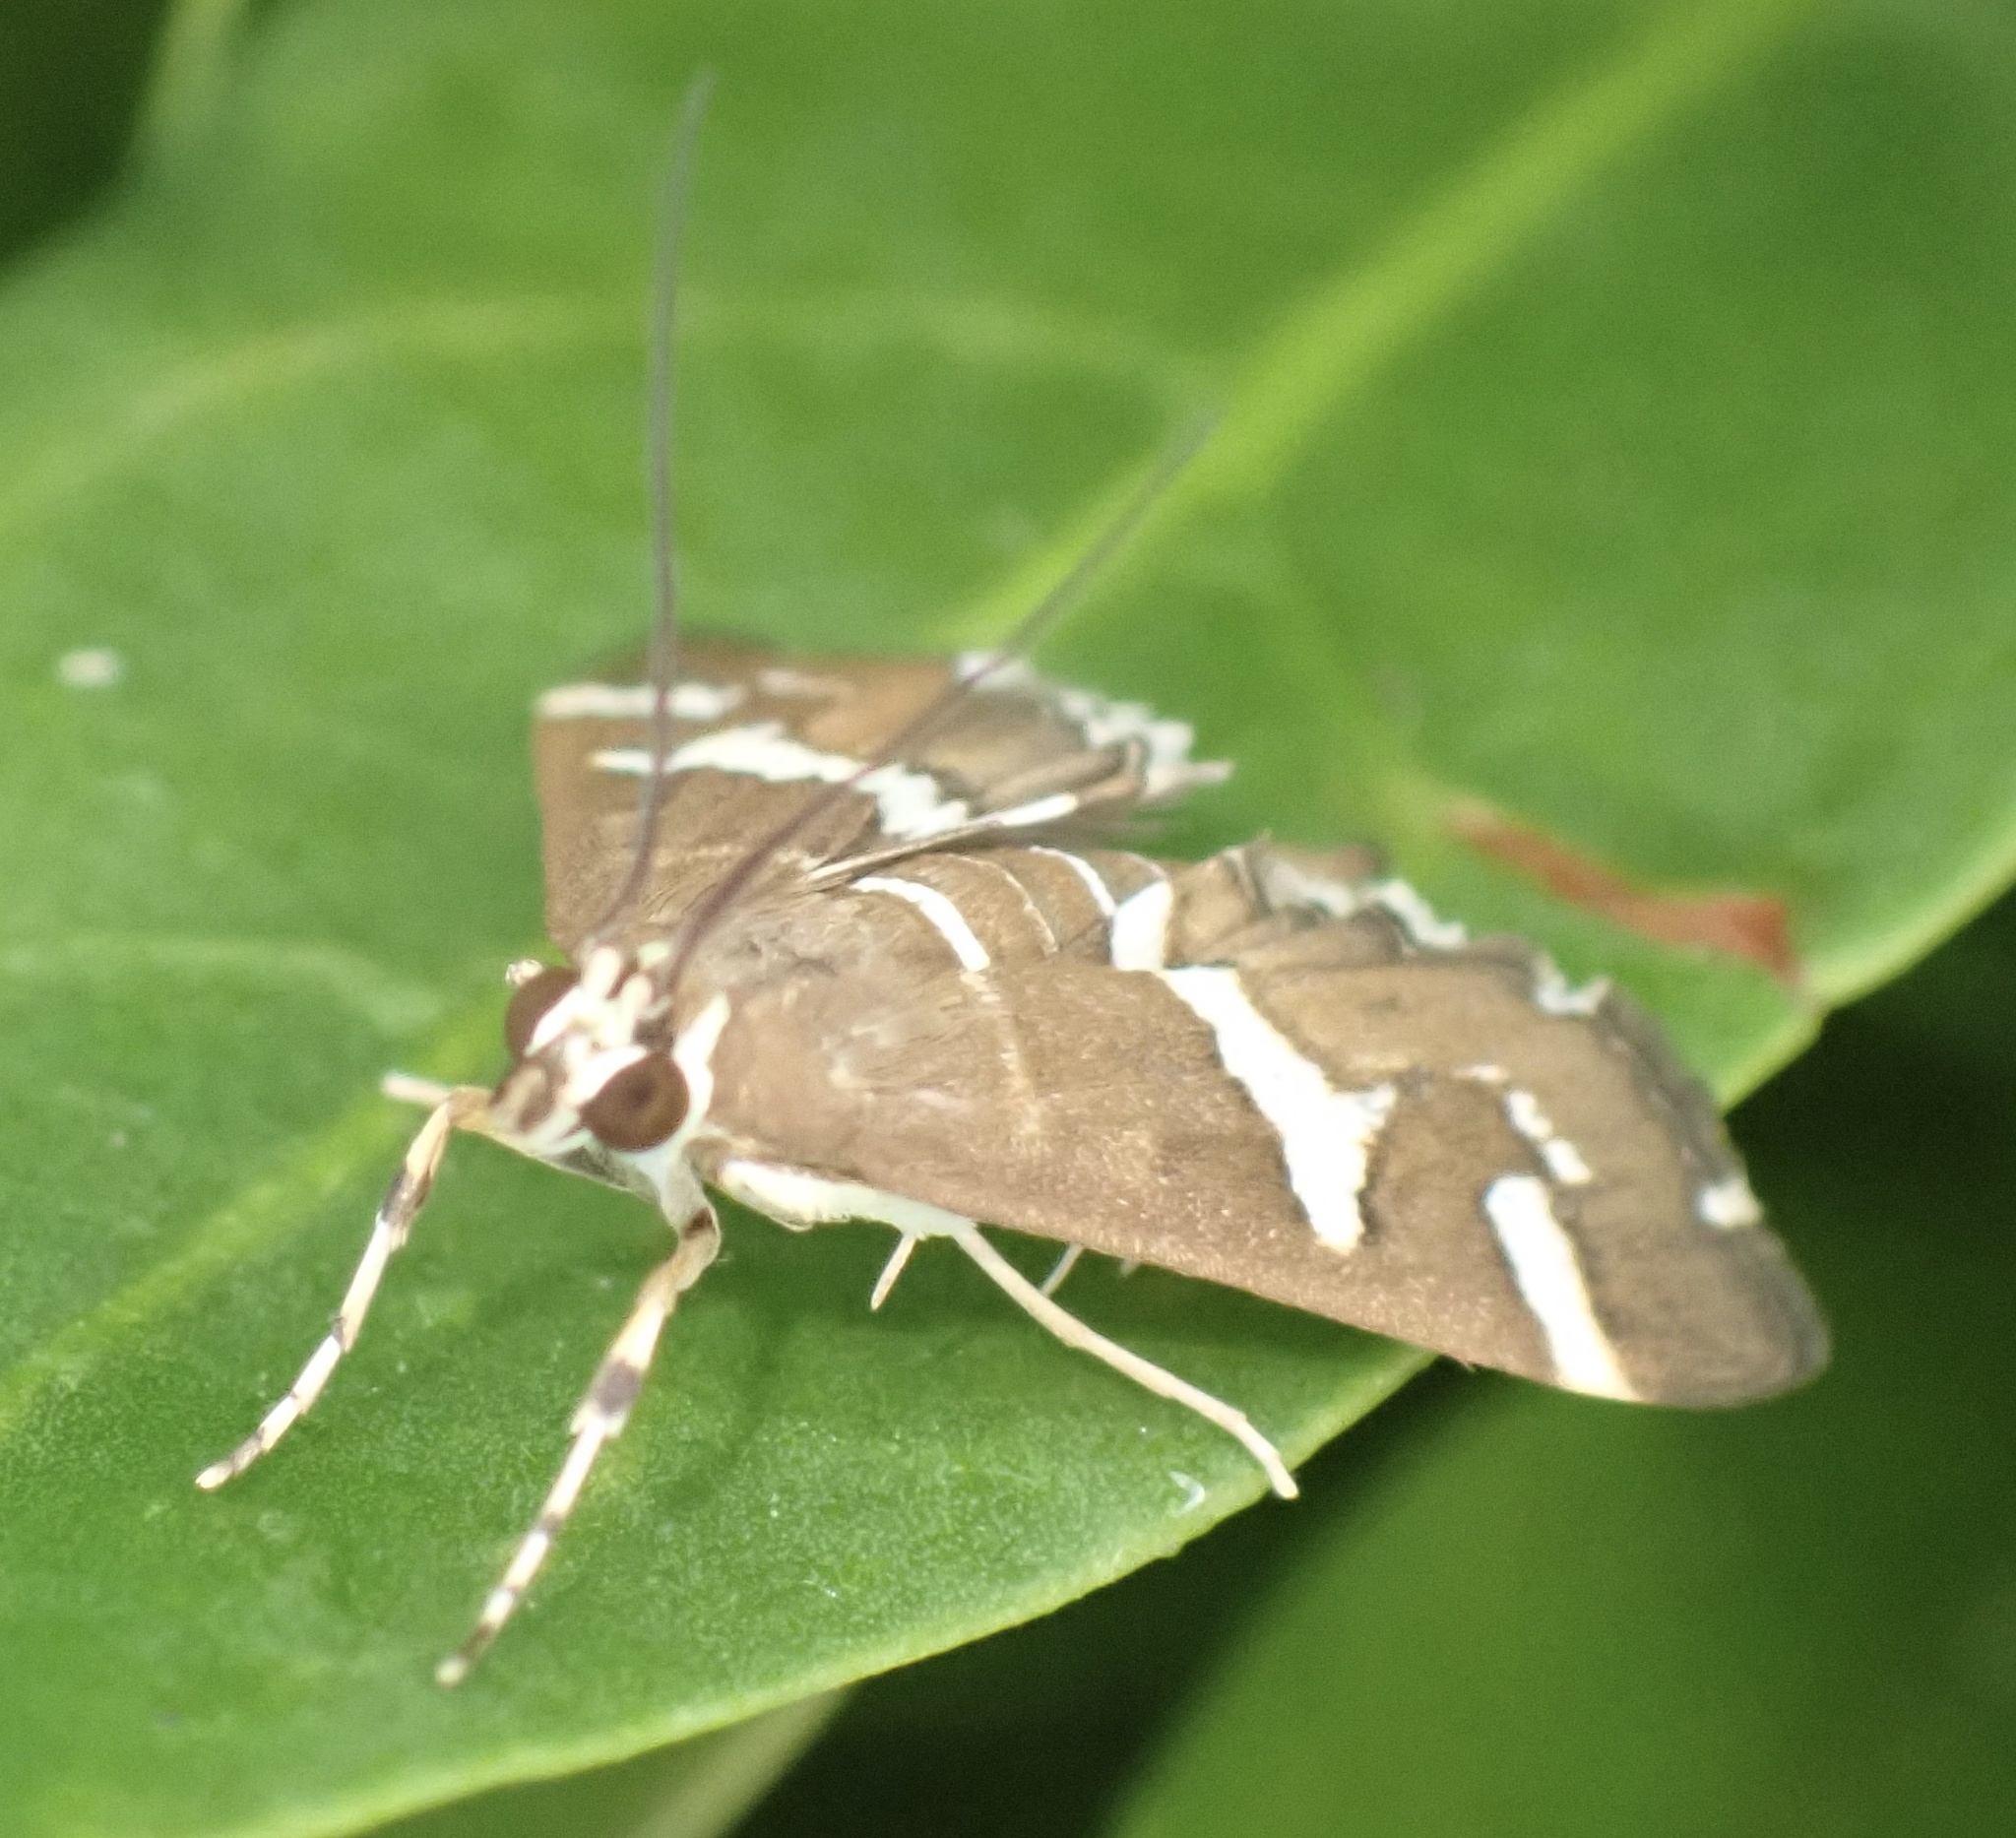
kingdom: Animalia
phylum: Arthropoda
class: Insecta
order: Lepidoptera
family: Crambidae
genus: Spoladea
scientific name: Spoladea recurvalis
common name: Beet webworm moth
